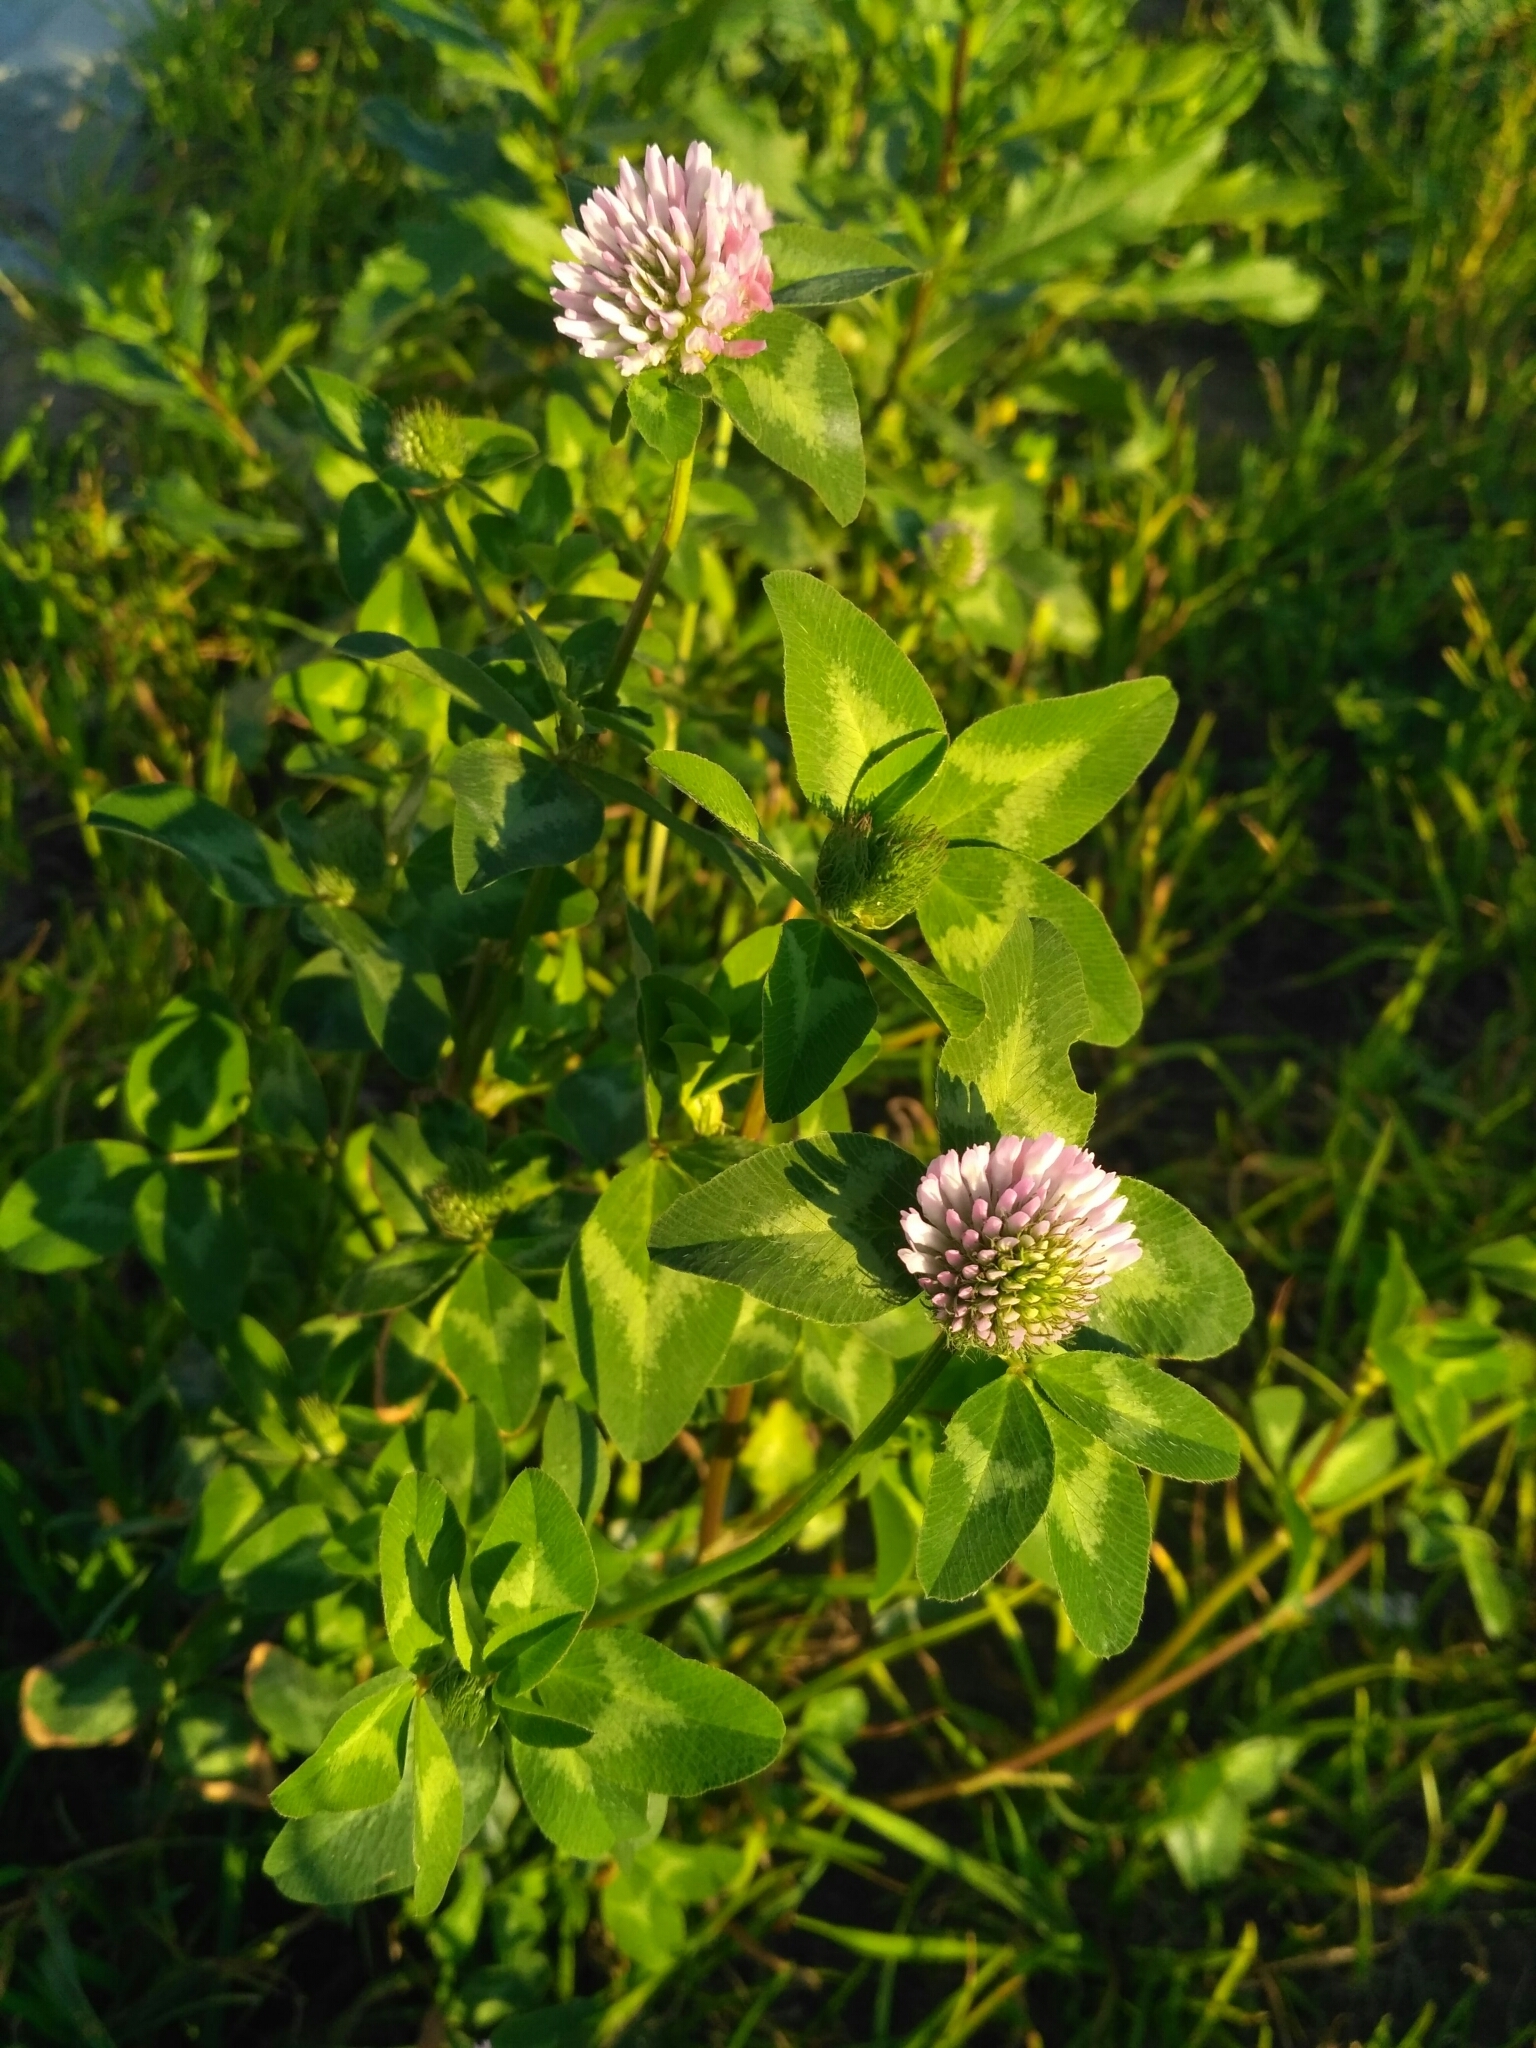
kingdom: Plantae
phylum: Tracheophyta
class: Magnoliopsida
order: Fabales
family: Fabaceae
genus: Trifolium
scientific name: Trifolium pratense
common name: Red clover
